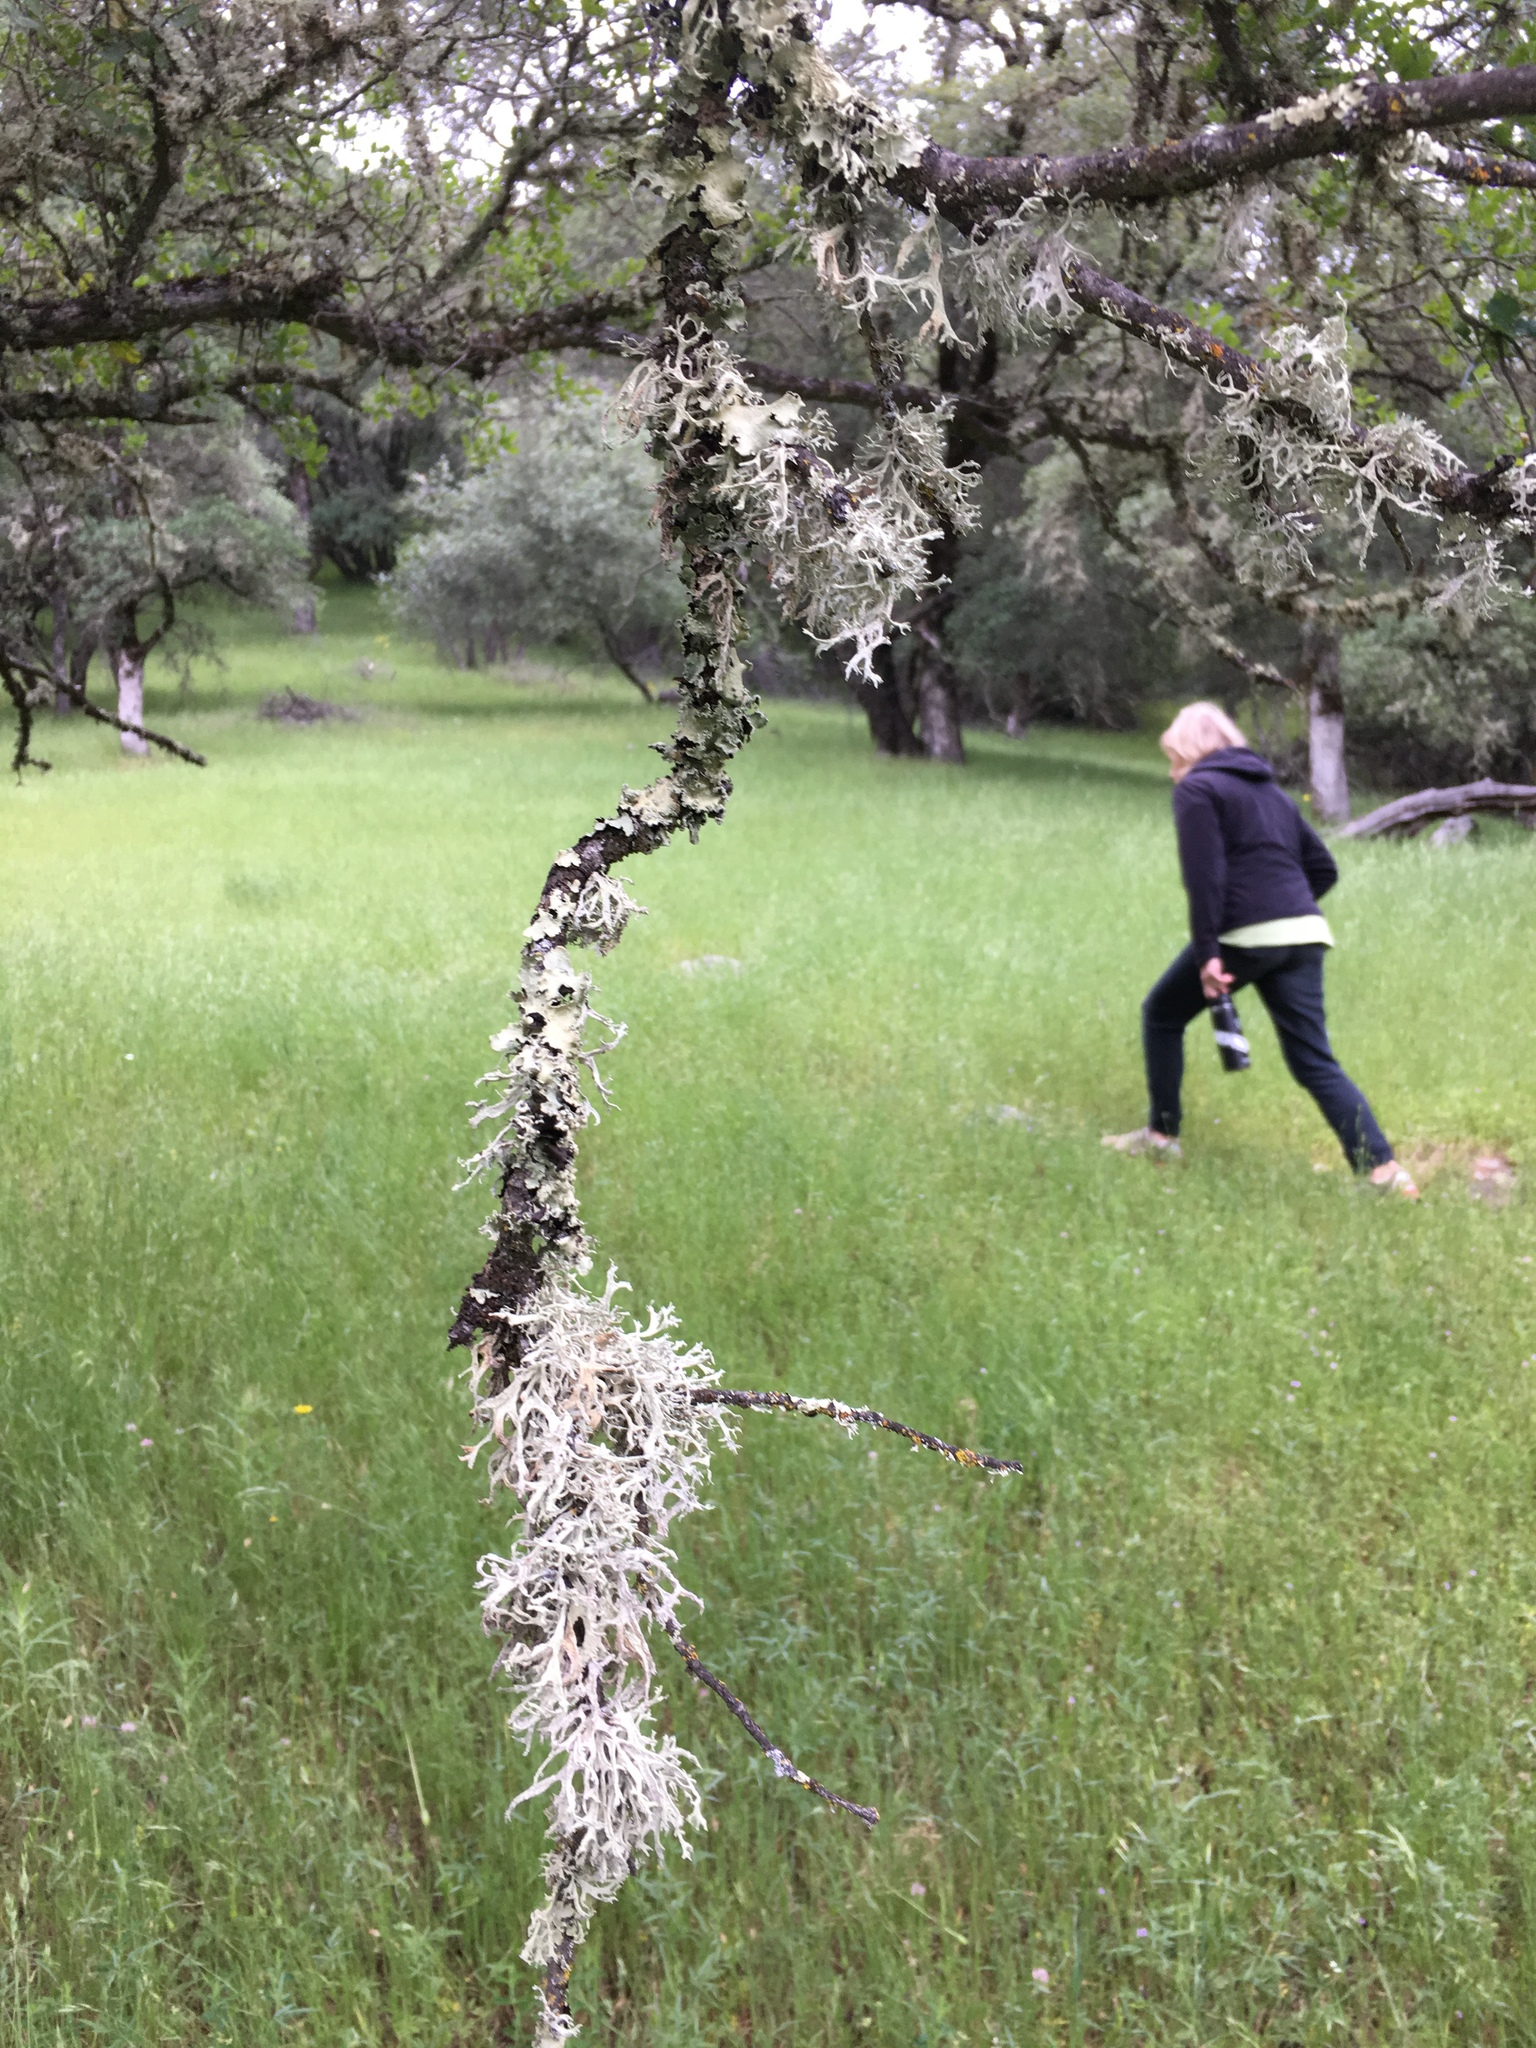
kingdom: Fungi
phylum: Ascomycota
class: Lecanoromycetes
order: Lecanorales
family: Parmeliaceae
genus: Evernia
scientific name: Evernia prunastri
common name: Oak moss
